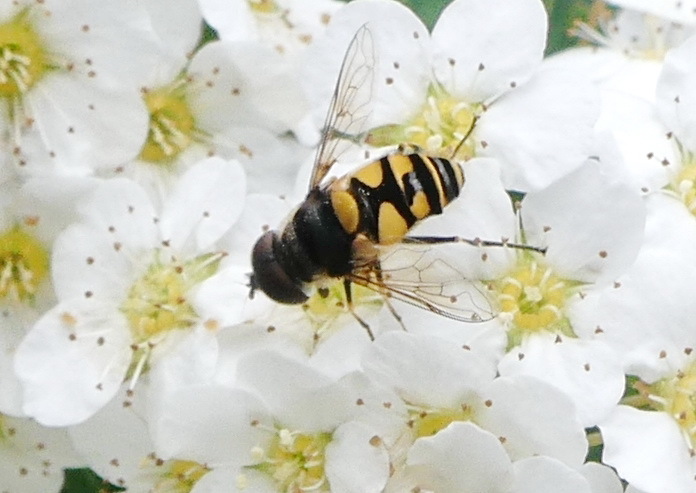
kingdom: Animalia
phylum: Arthropoda
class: Insecta
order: Diptera
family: Syrphidae
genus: Eristalis
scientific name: Eristalis transversa
